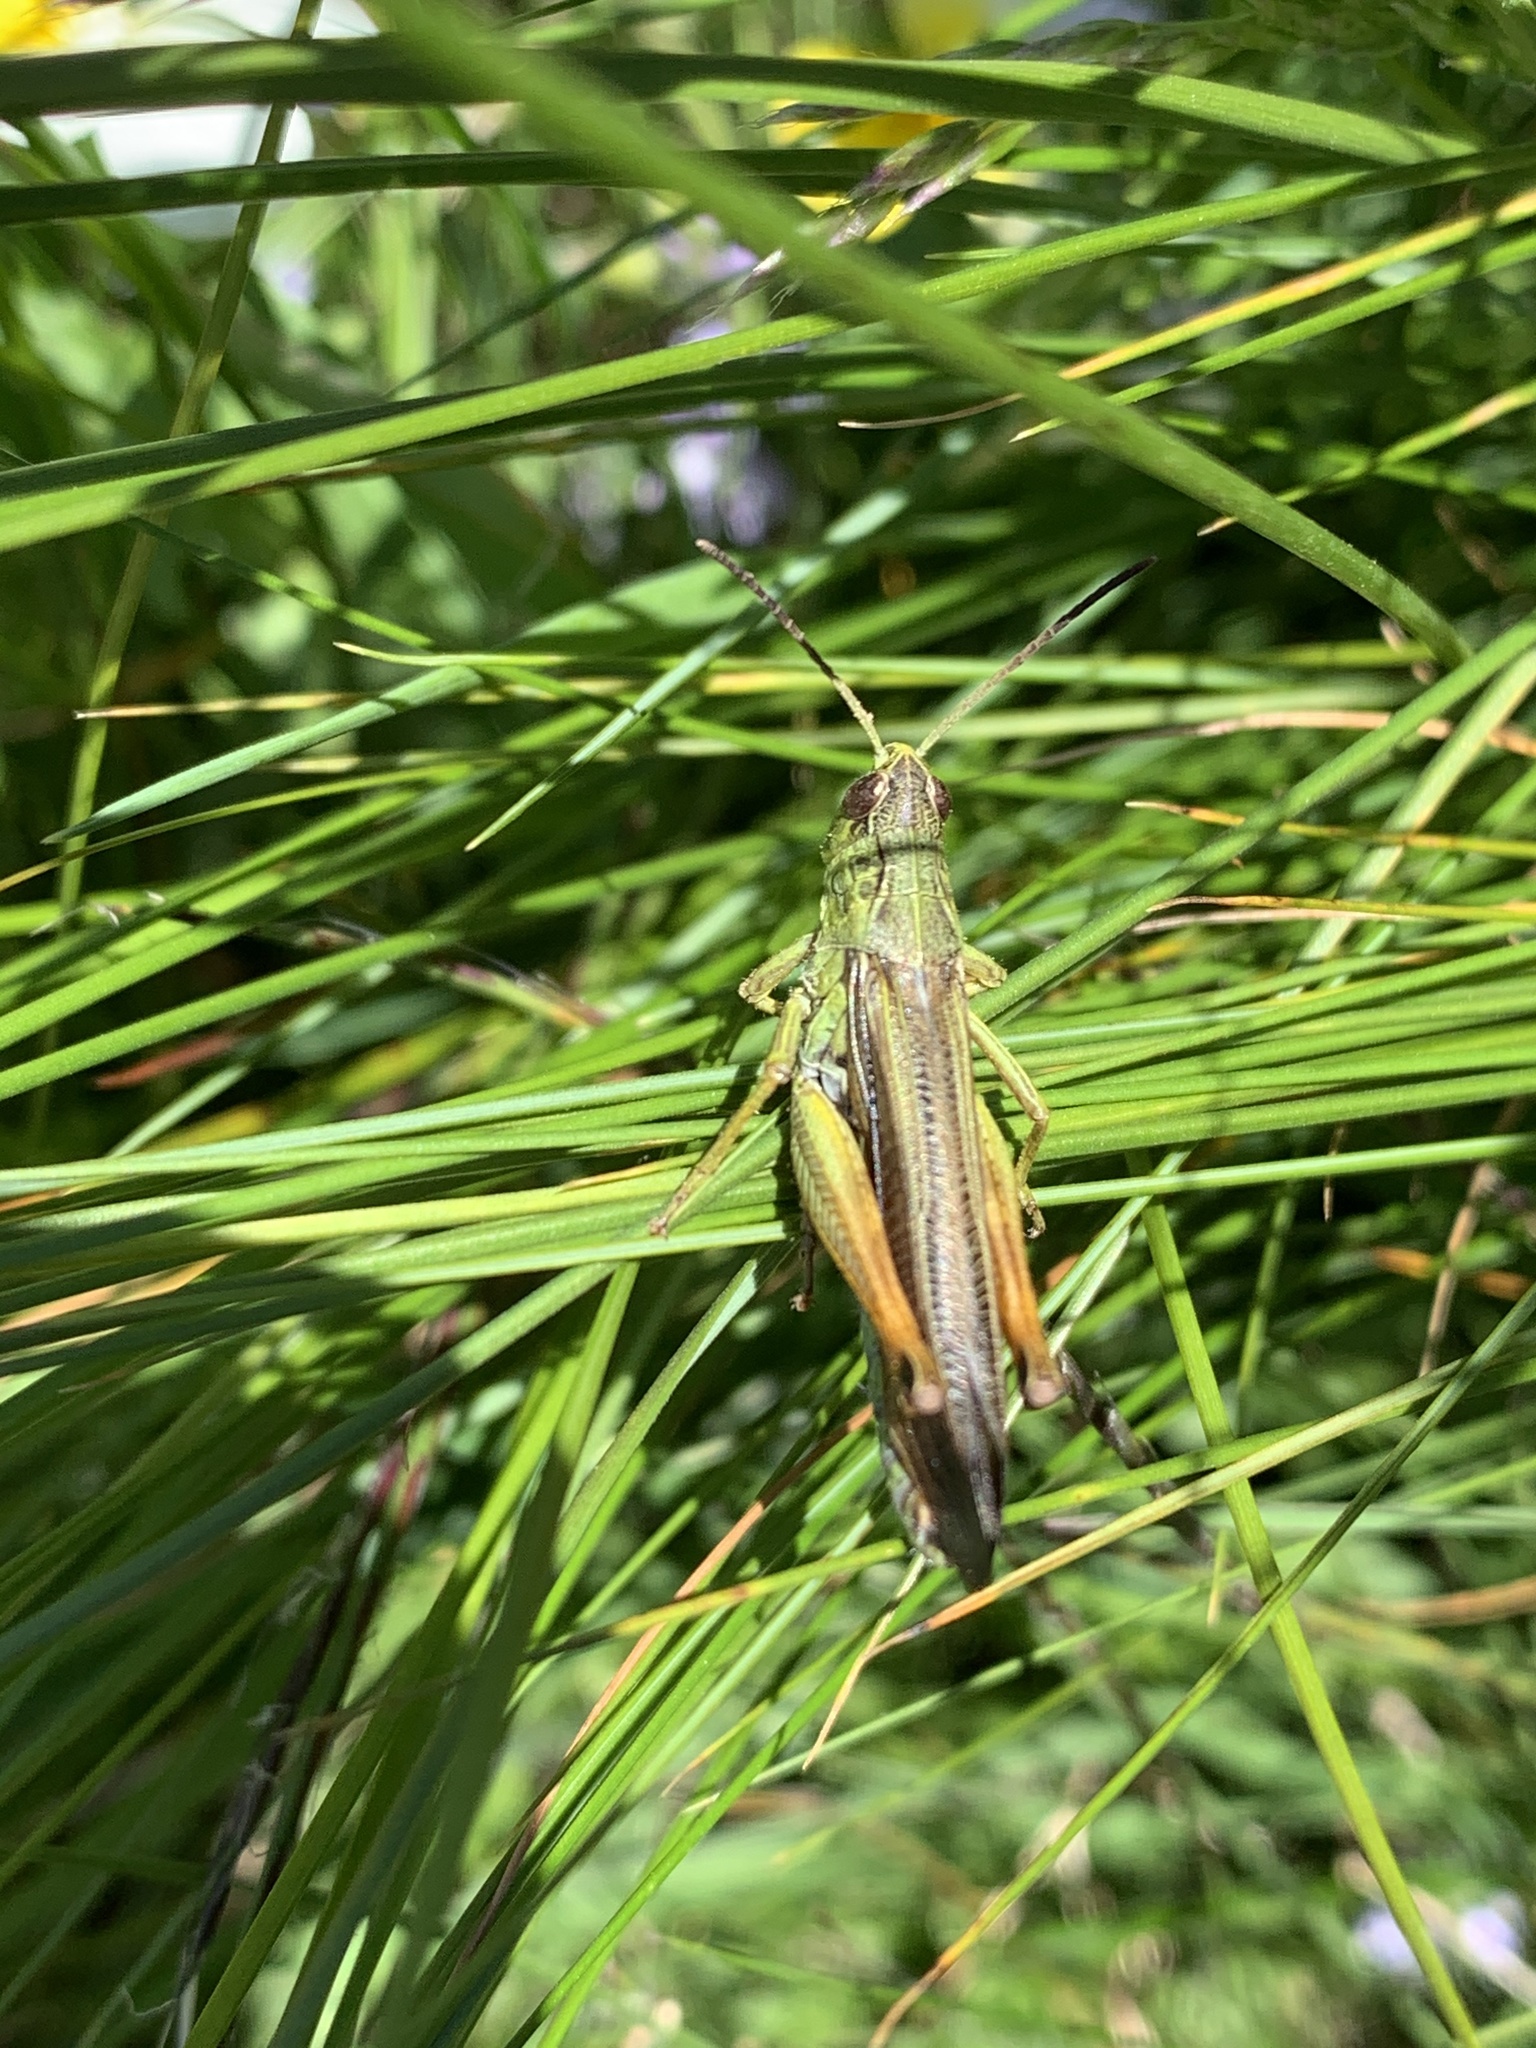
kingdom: Animalia
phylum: Arthropoda
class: Insecta
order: Orthoptera
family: Acrididae
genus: Stauroderus
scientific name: Stauroderus scalaris
